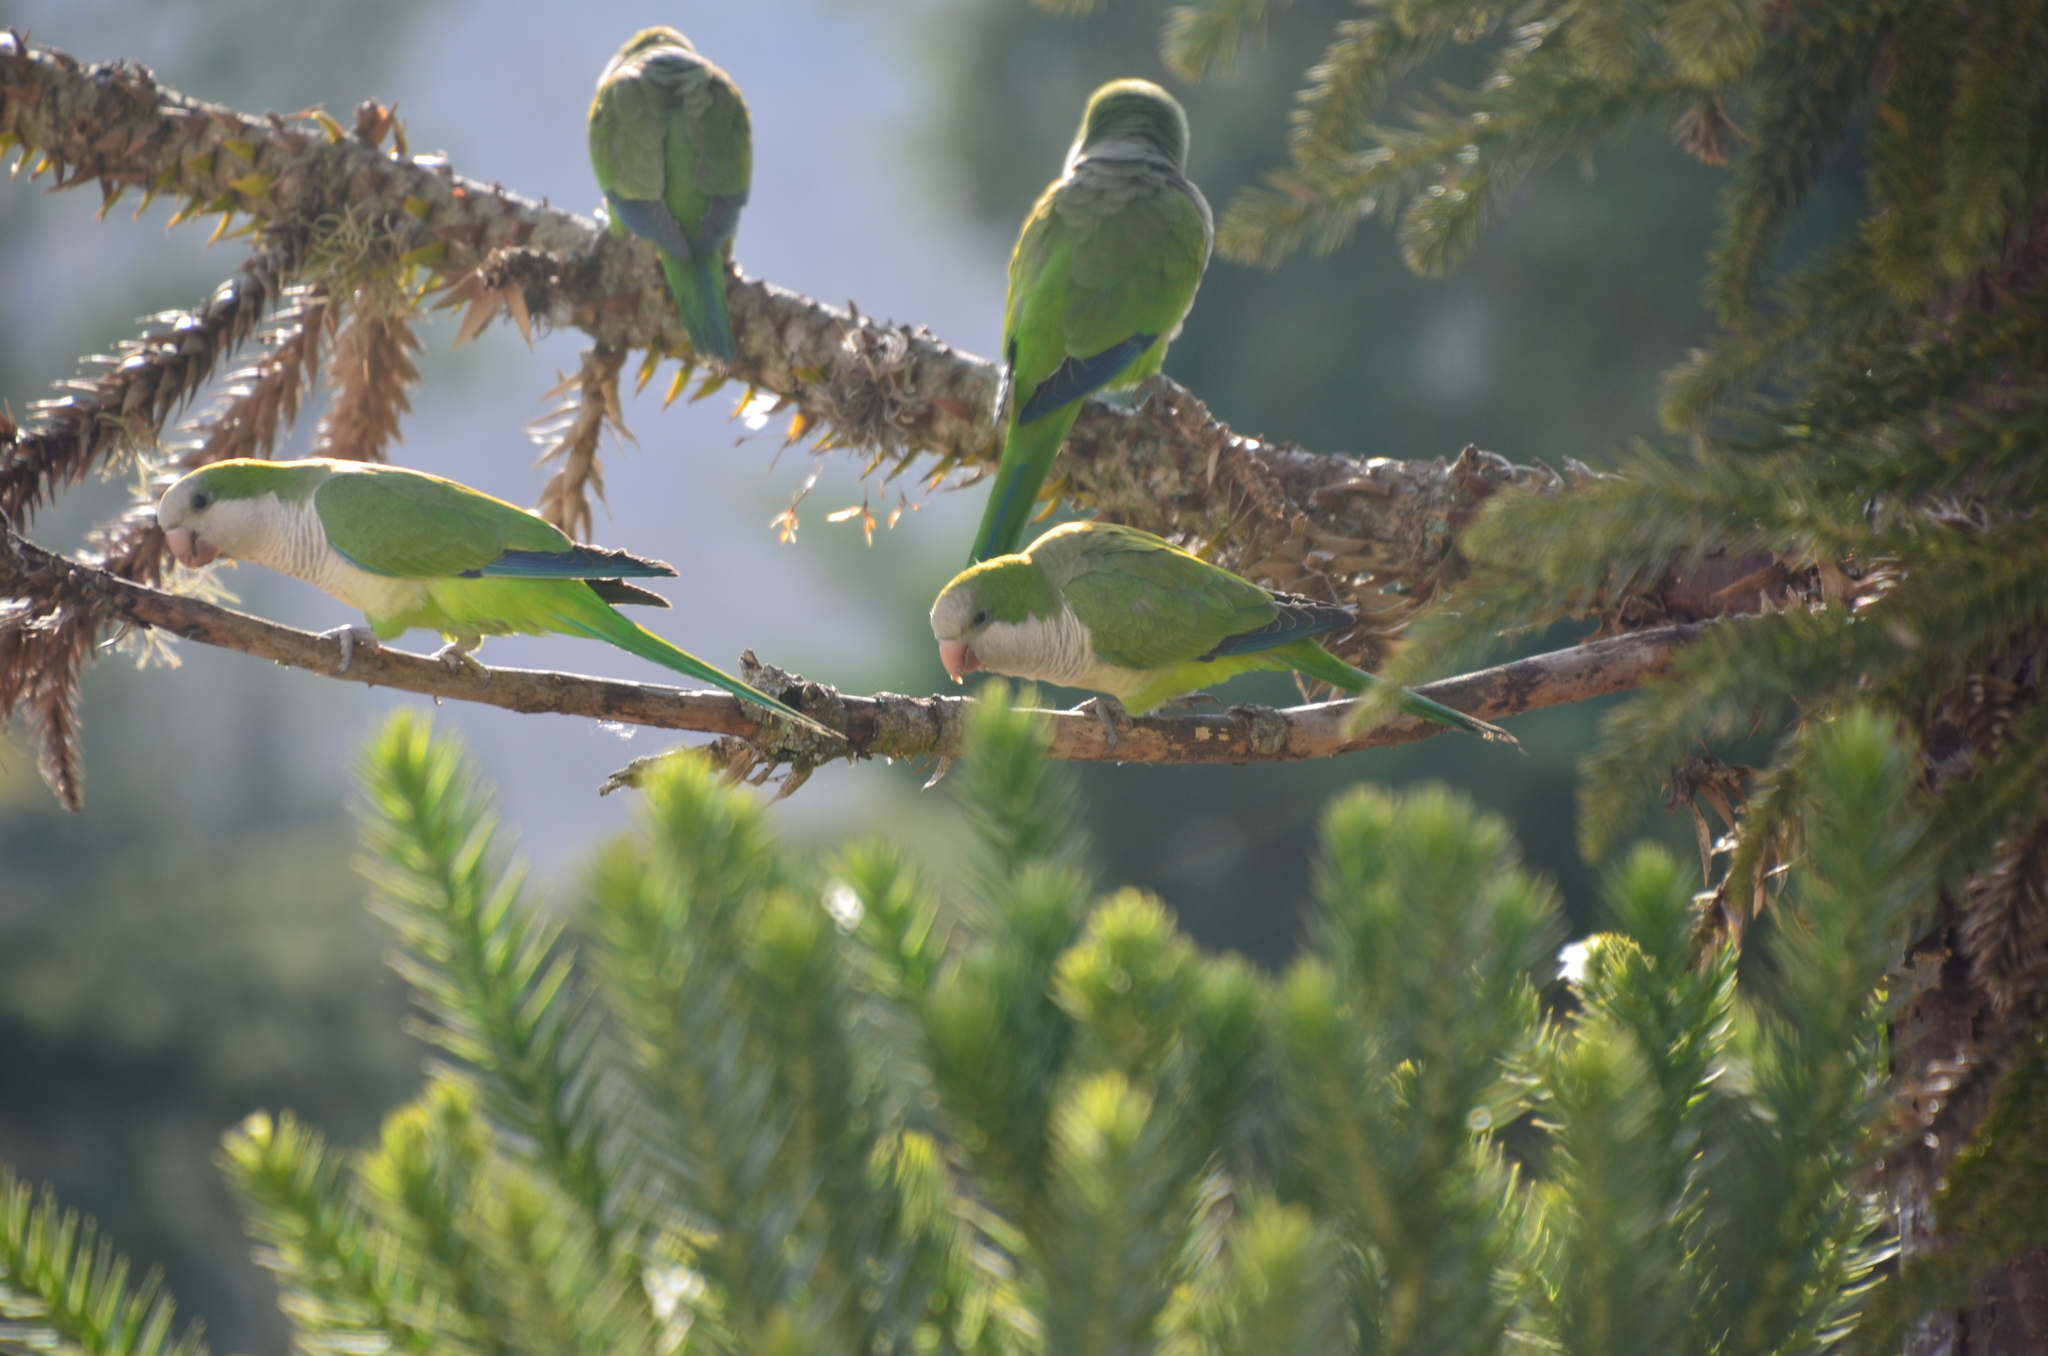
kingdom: Animalia
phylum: Chordata
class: Aves
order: Psittaciformes
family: Psittacidae
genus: Myiopsitta
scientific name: Myiopsitta monachus
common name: Monk parakeet
